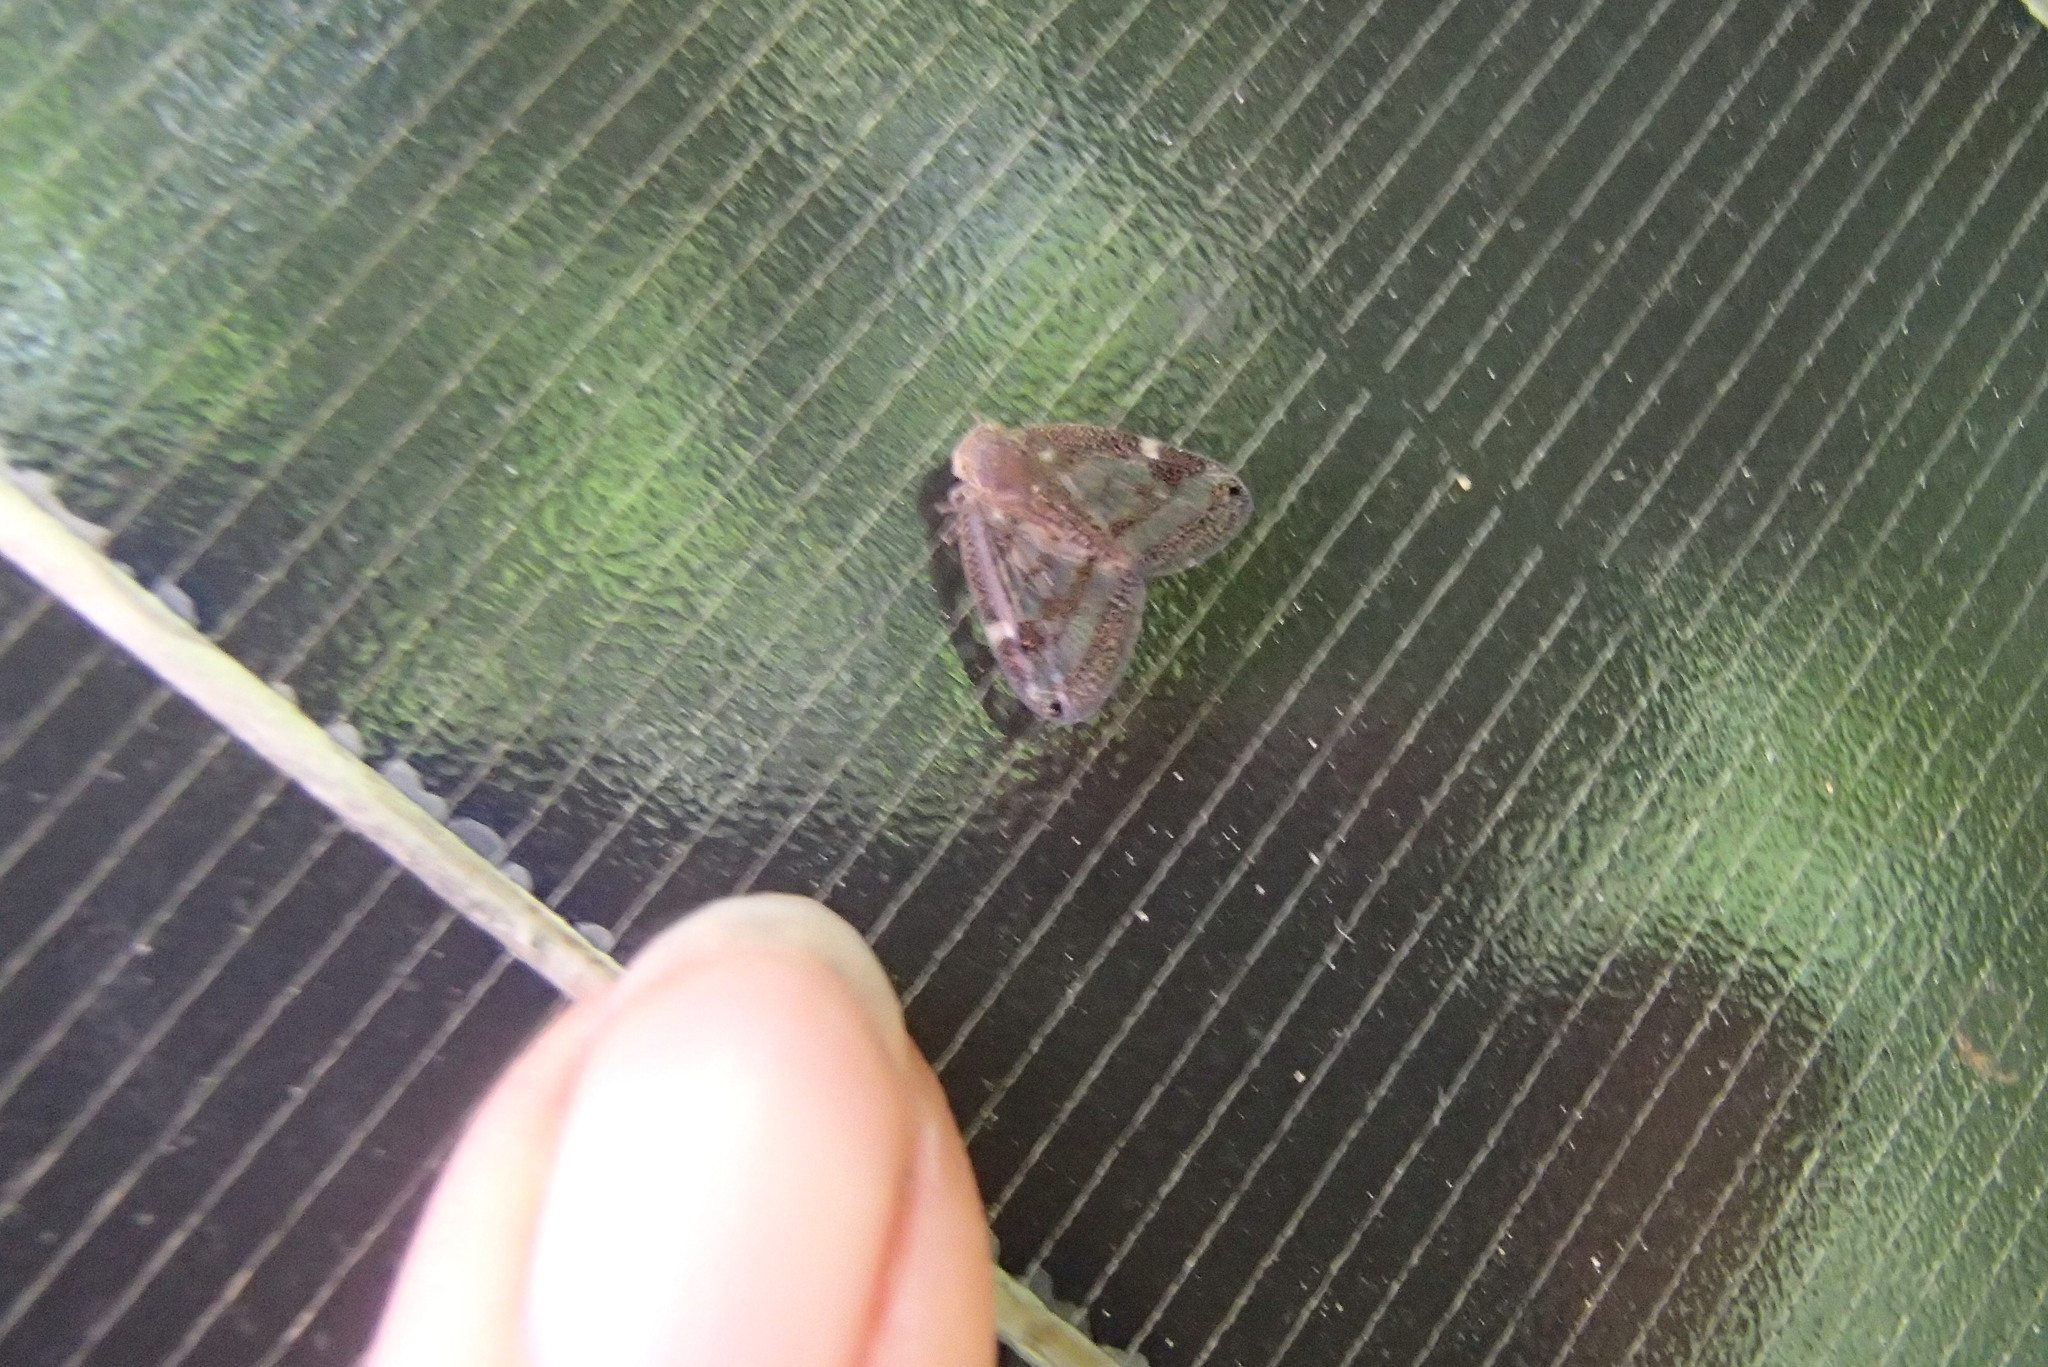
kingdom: Animalia
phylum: Arthropoda
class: Insecta
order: Hemiptera
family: Ricaniidae
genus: Scolypopa
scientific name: Scolypopa australis
